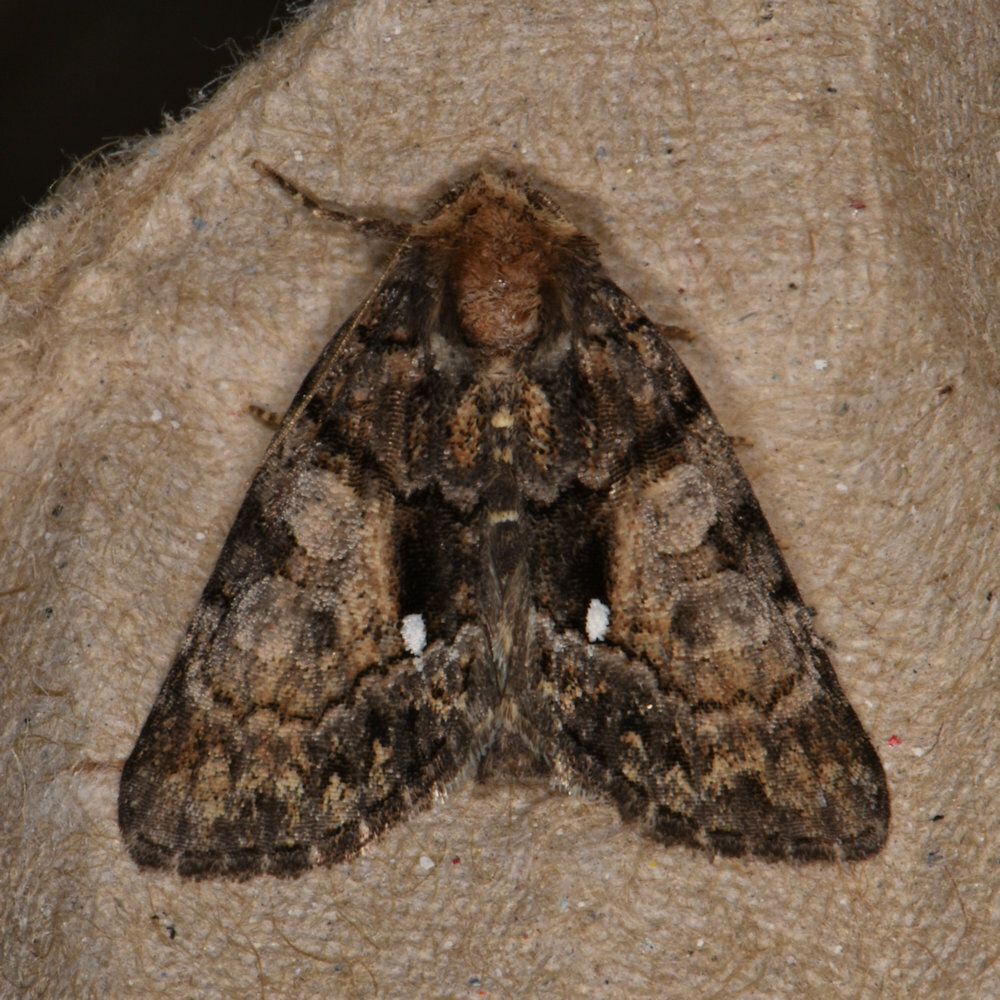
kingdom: Animalia
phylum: Arthropoda
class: Insecta
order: Lepidoptera
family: Noctuidae
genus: Chytonix
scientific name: Chytonix palliatricula
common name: Cloaked marvel
